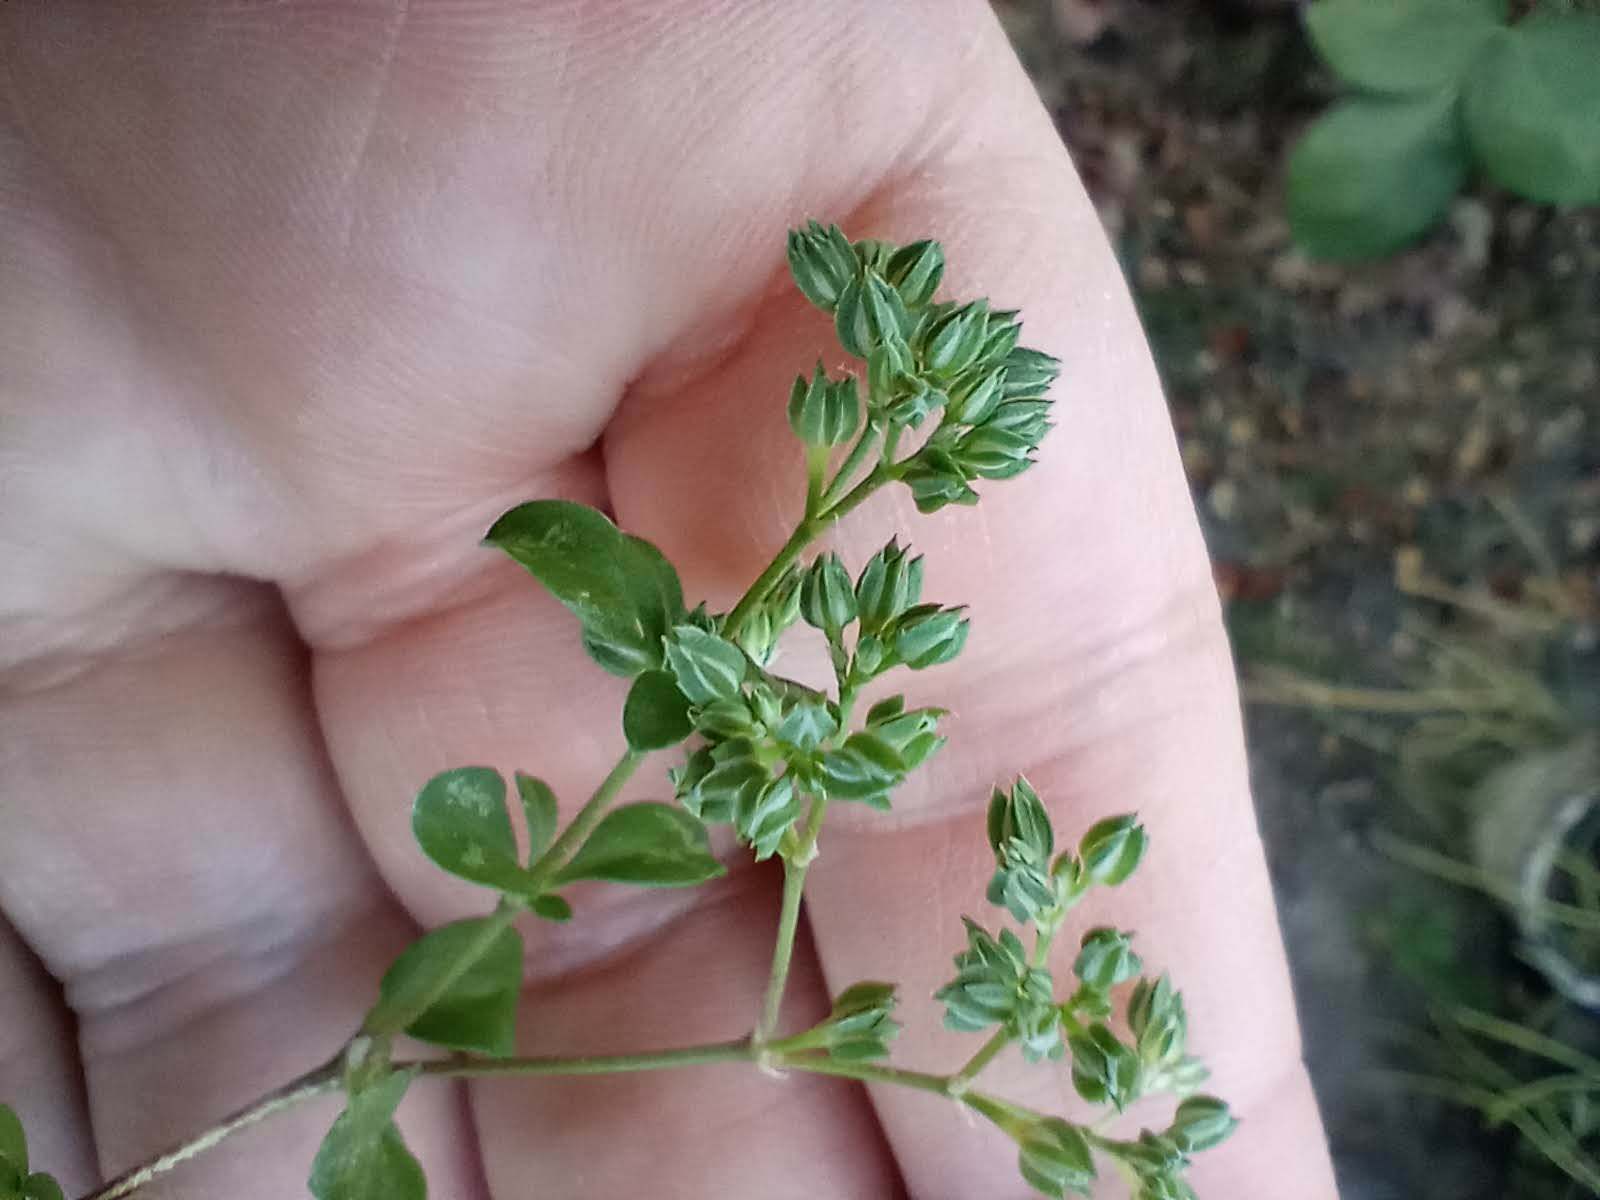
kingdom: Plantae
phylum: Tracheophyta
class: Magnoliopsida
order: Caryophyllales
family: Caryophyllaceae
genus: Polycarpon
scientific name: Polycarpon tetraphyllum
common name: Four-leaved all-seed
